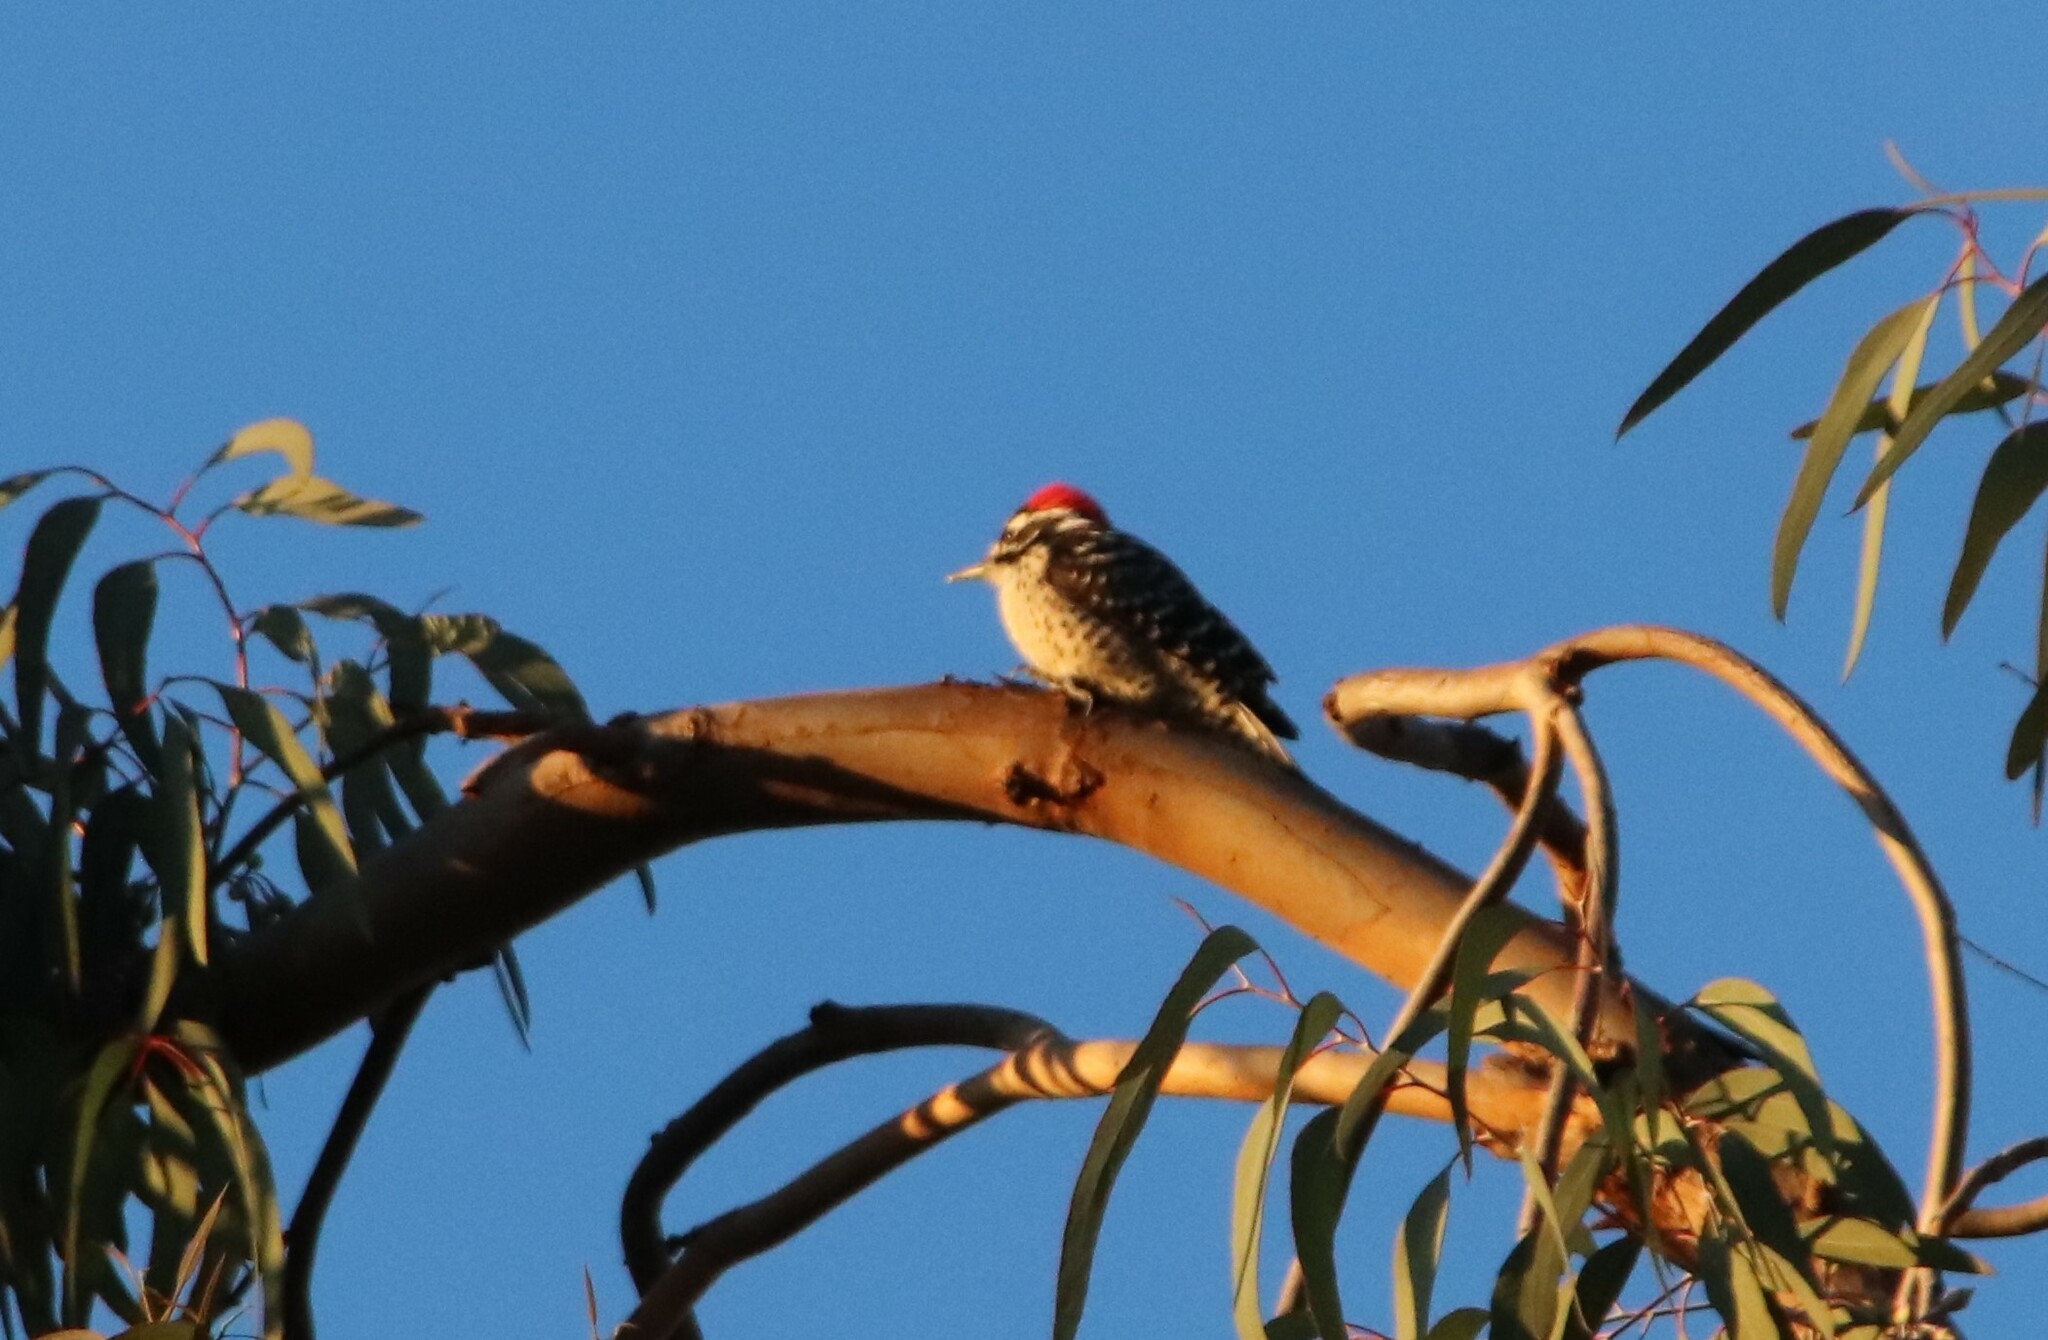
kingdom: Animalia
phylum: Chordata
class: Aves
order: Piciformes
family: Picidae
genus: Dryobates
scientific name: Dryobates nuttallii
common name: Nuttall's woodpecker
